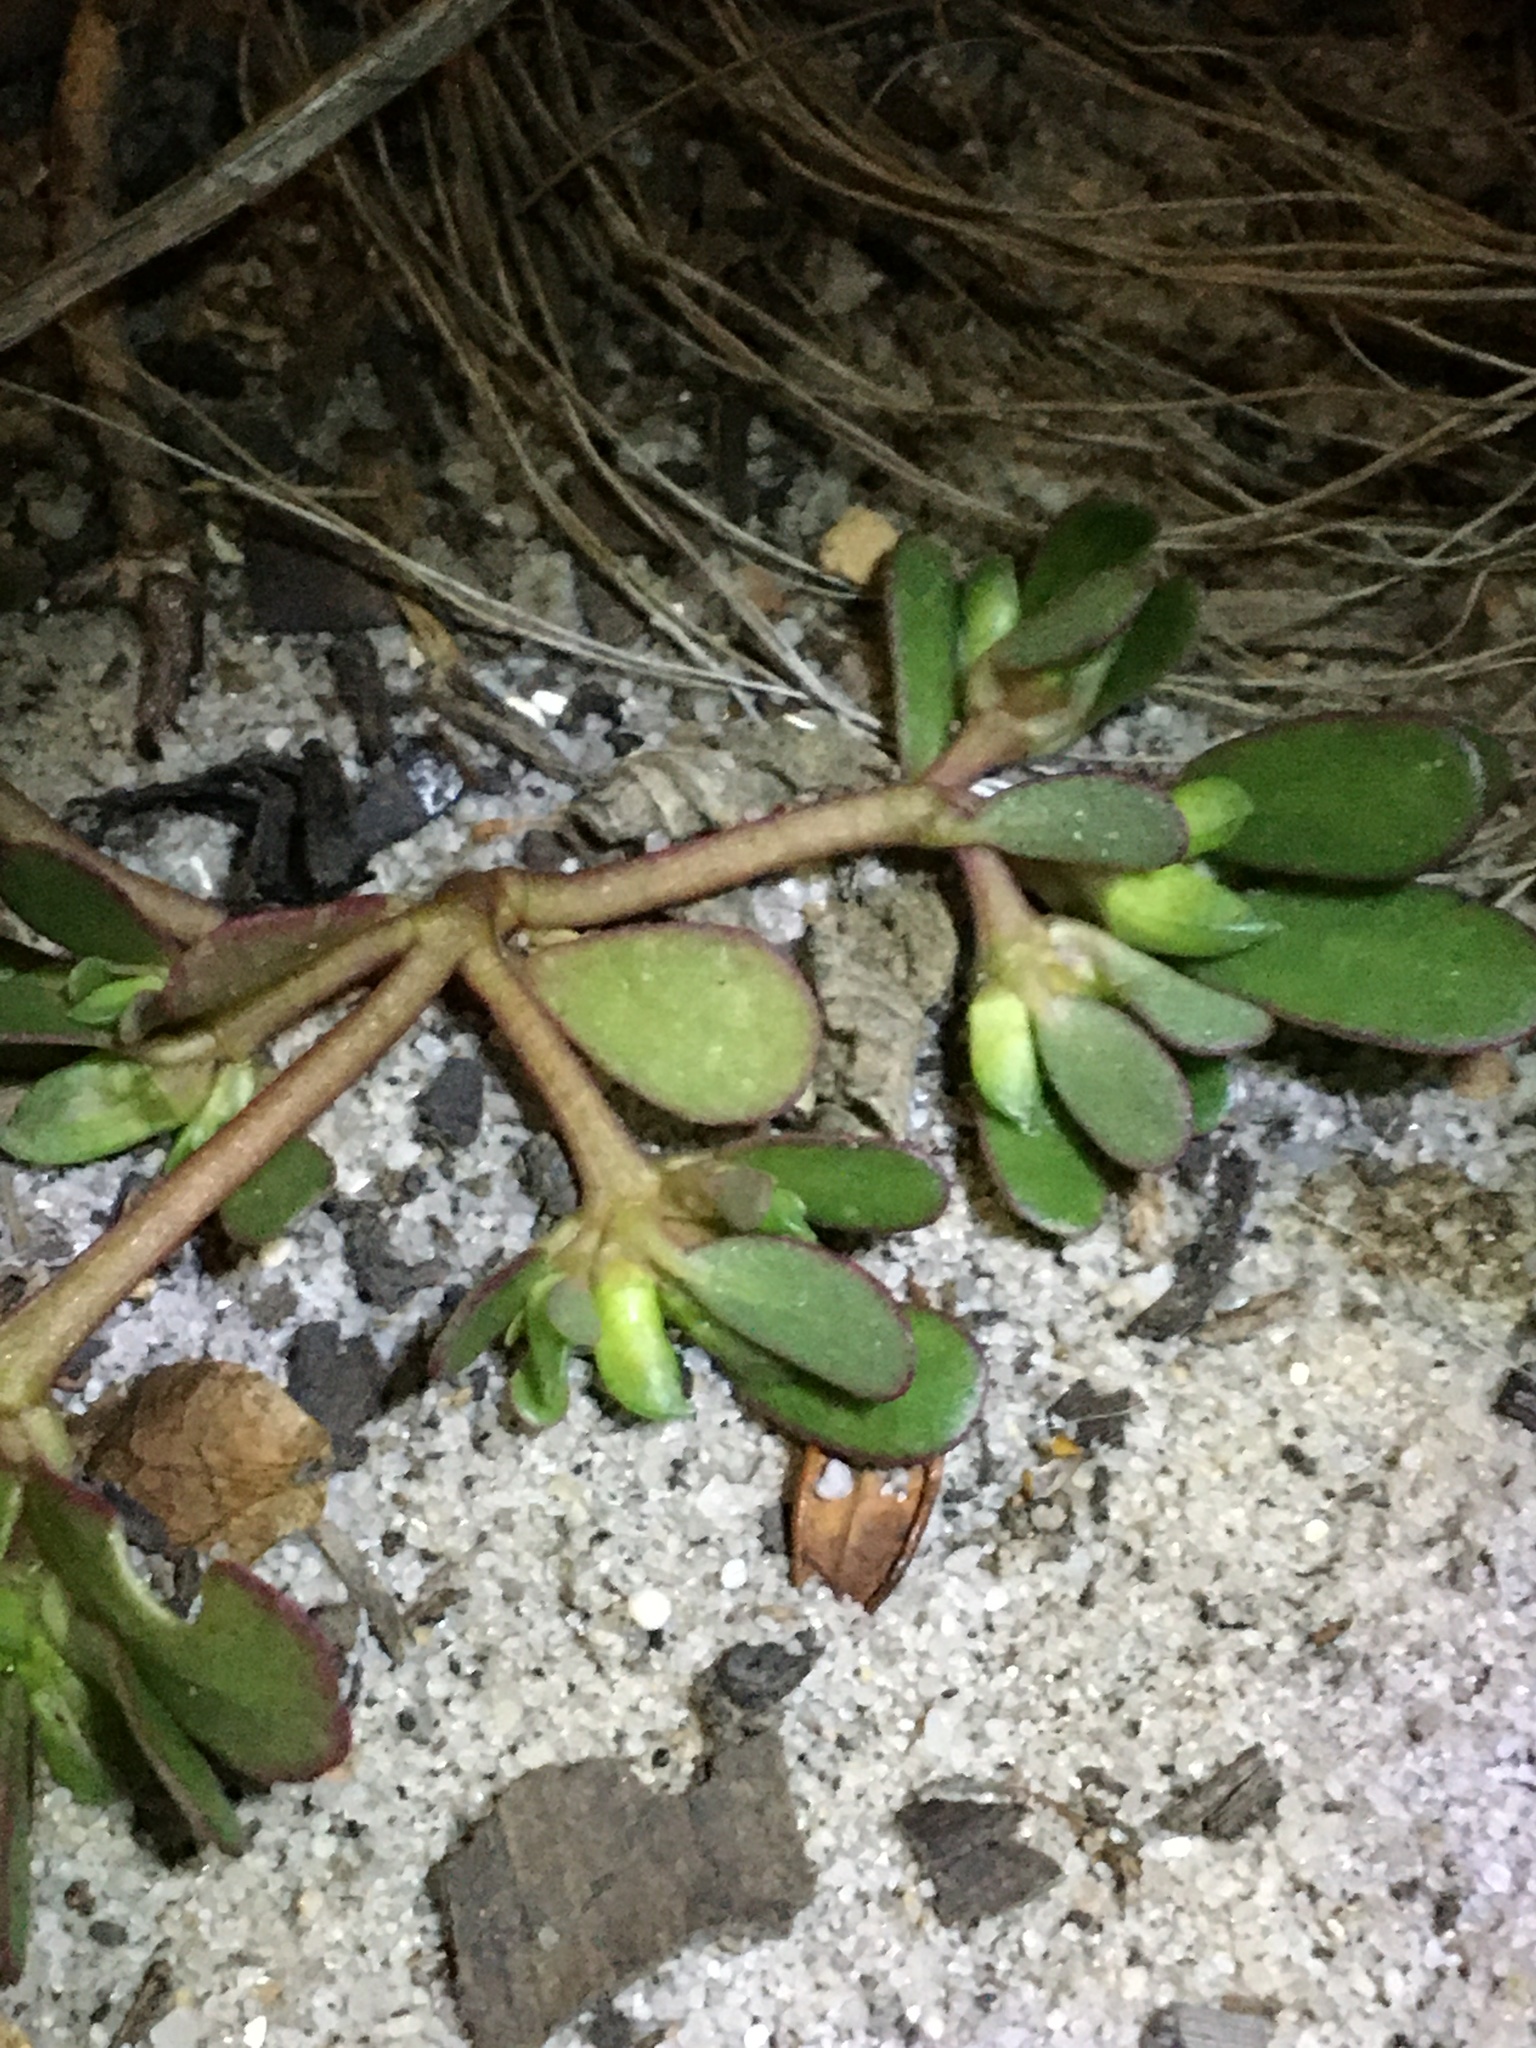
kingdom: Plantae
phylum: Tracheophyta
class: Magnoliopsida
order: Caryophyllales
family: Portulacaceae
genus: Portulaca
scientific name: Portulaca oleracea
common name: Common purslane
